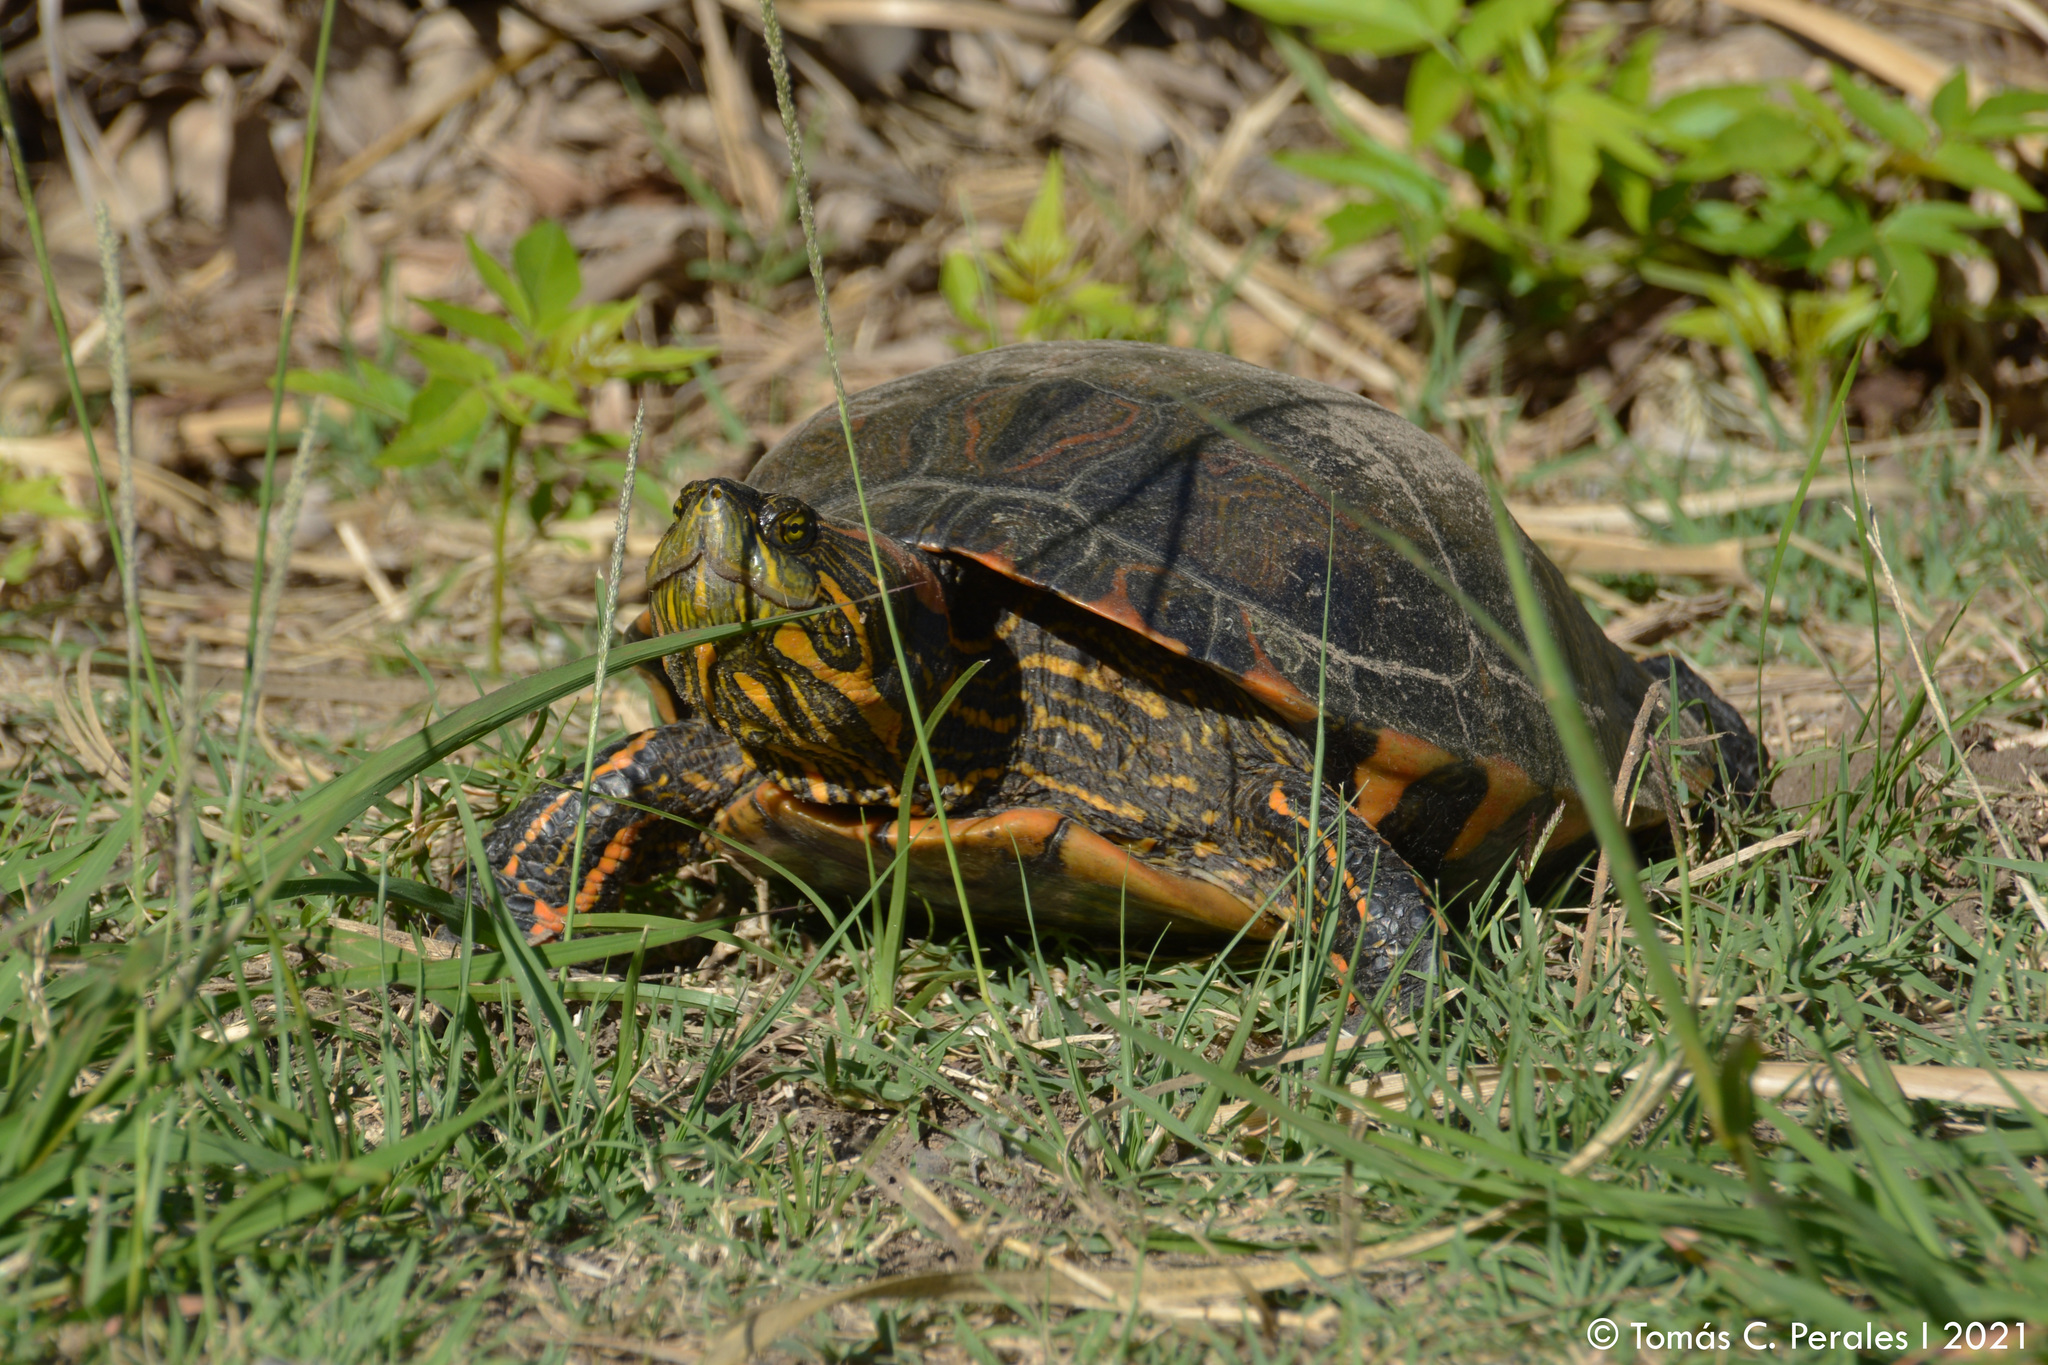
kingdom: Animalia
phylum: Chordata
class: Testudines
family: Emydidae
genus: Trachemys
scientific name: Trachemys dorbigni
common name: Black-bellied slider
